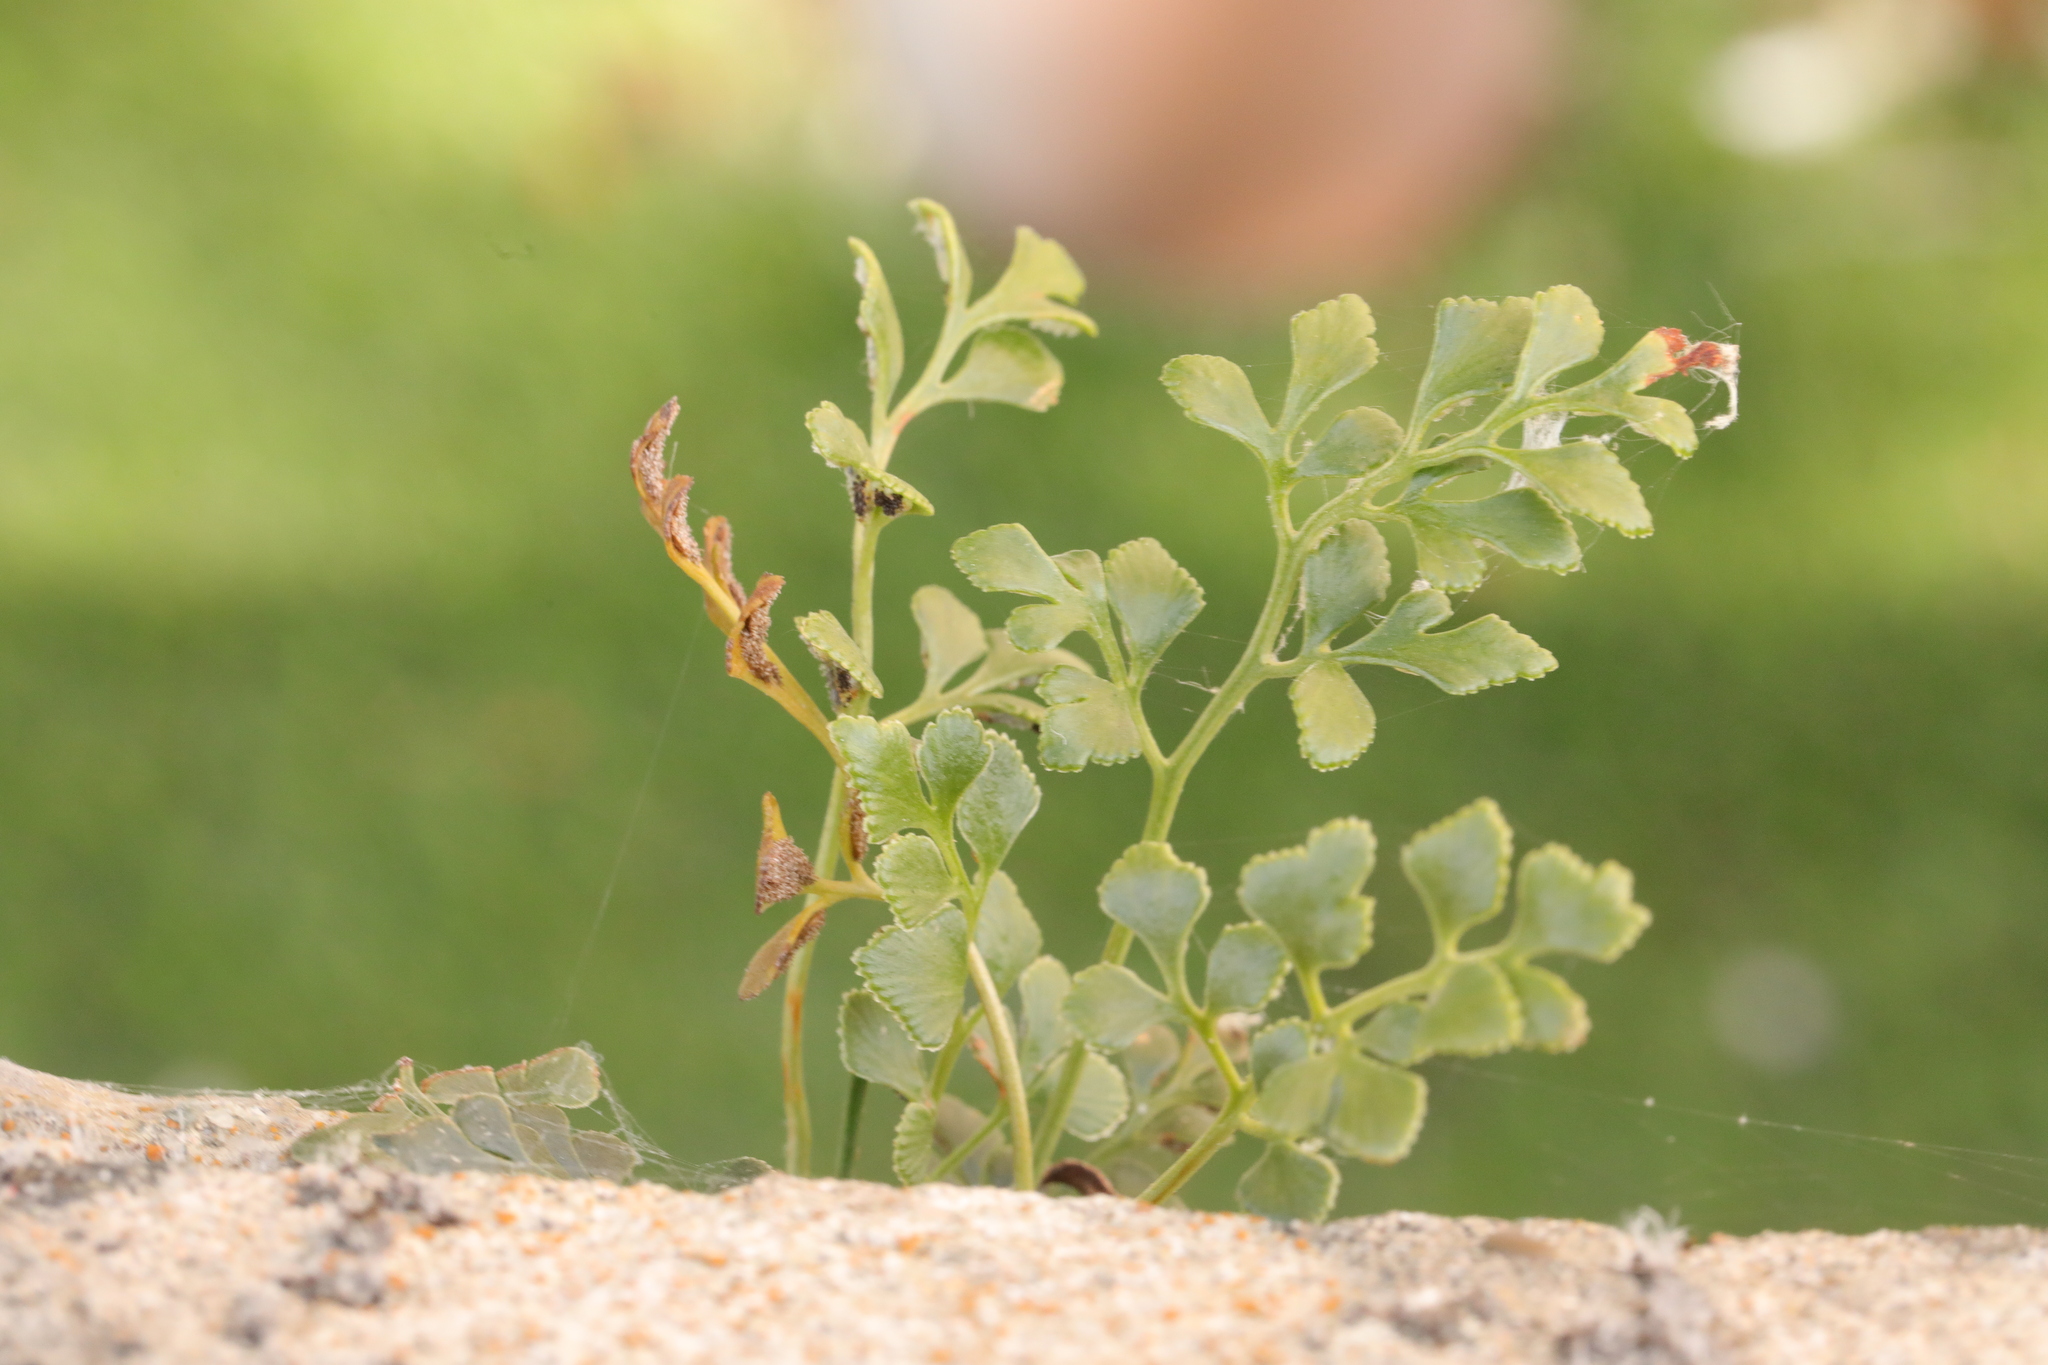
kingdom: Plantae
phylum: Tracheophyta
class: Polypodiopsida
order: Polypodiales
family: Aspleniaceae
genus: Asplenium
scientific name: Asplenium ruta-muraria
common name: Wall-rue
